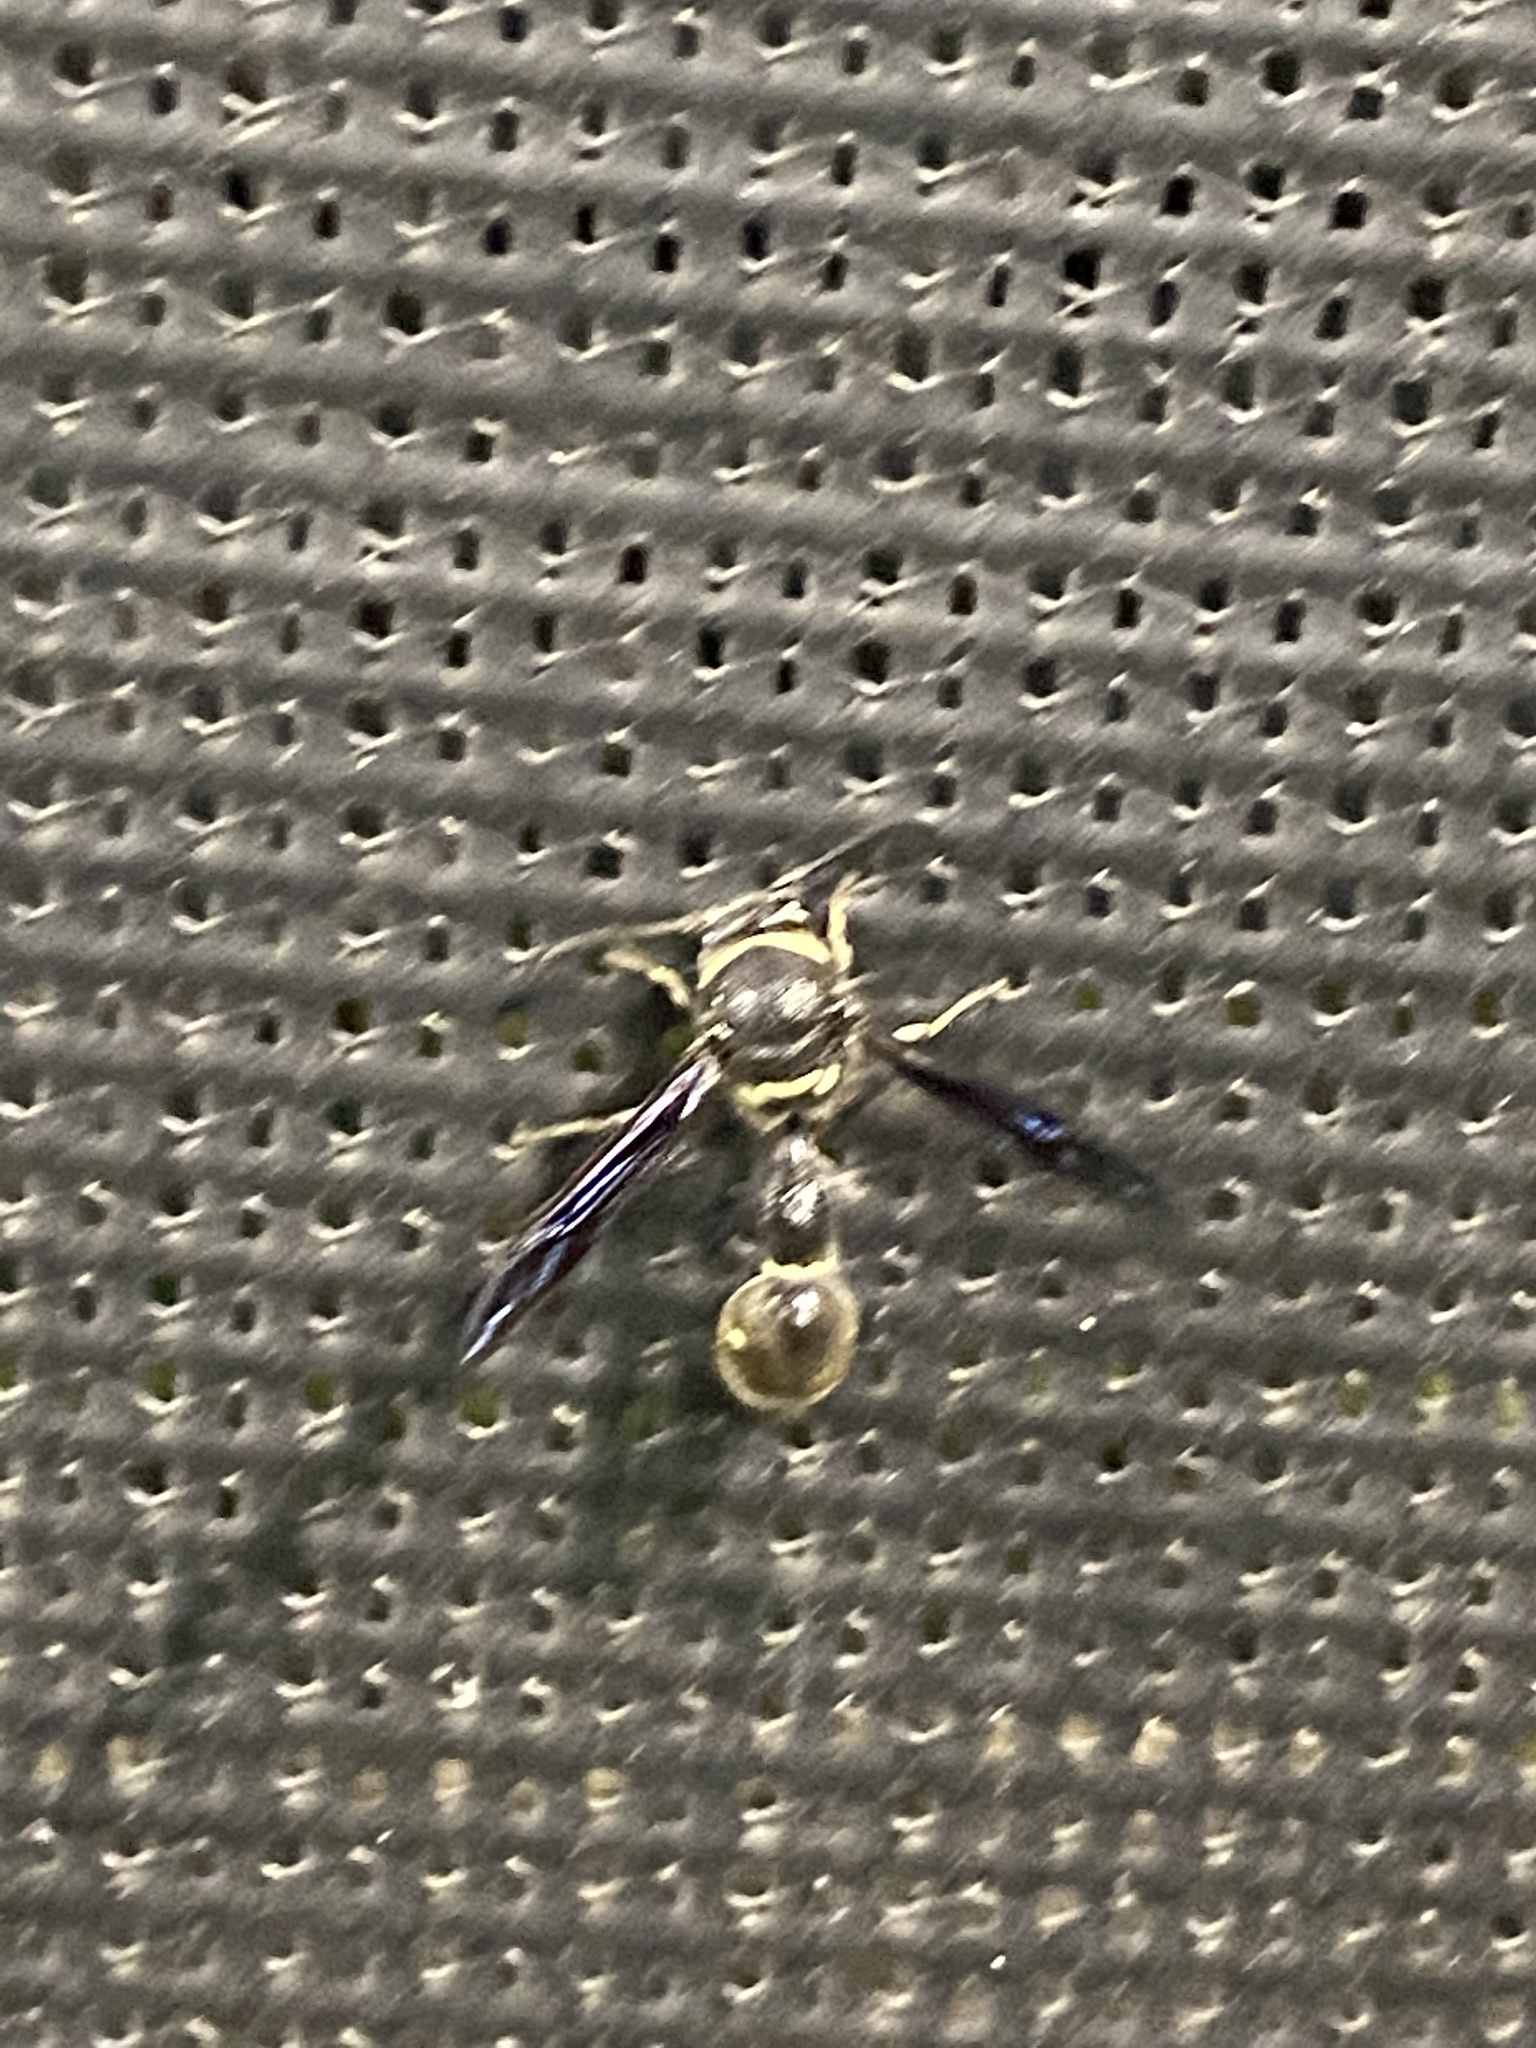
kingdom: Animalia
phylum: Arthropoda
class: Insecta
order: Hymenoptera
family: Vespidae
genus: Eumenes
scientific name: Eumenes fraternus
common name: Fraternal potter wasp
